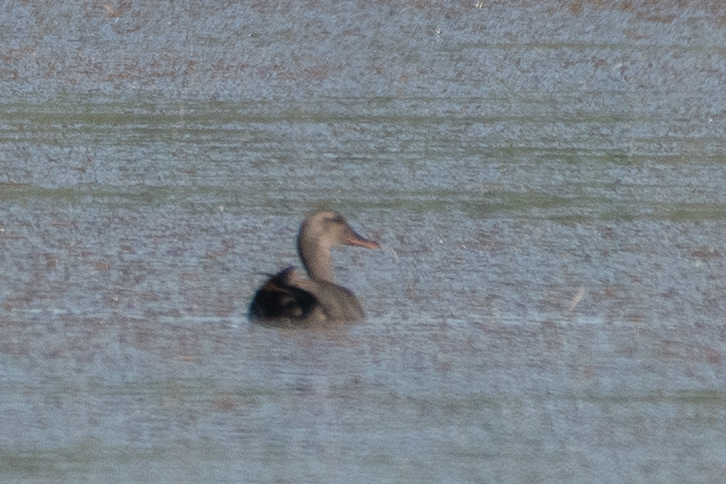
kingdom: Animalia
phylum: Chordata
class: Aves
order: Anseriformes
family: Anatidae
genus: Mareca
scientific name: Mareca strepera
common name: Gadwall
